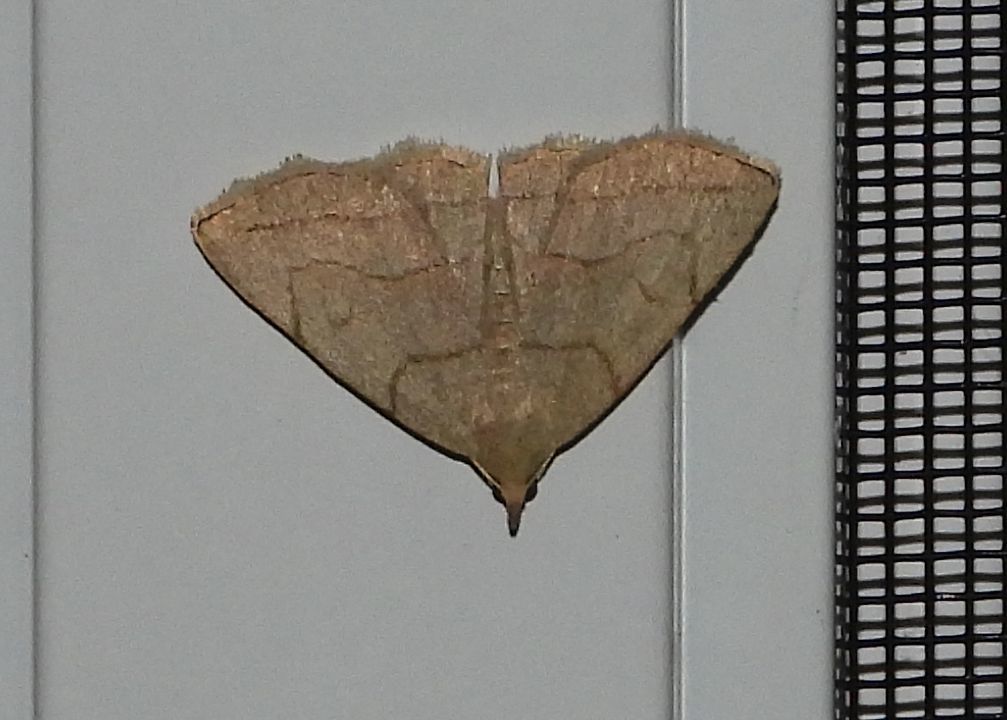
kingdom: Animalia
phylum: Arthropoda
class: Insecta
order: Lepidoptera
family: Erebidae
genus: Zanclognatha
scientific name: Zanclognatha pedipilalis
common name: Grayish fan-foot
